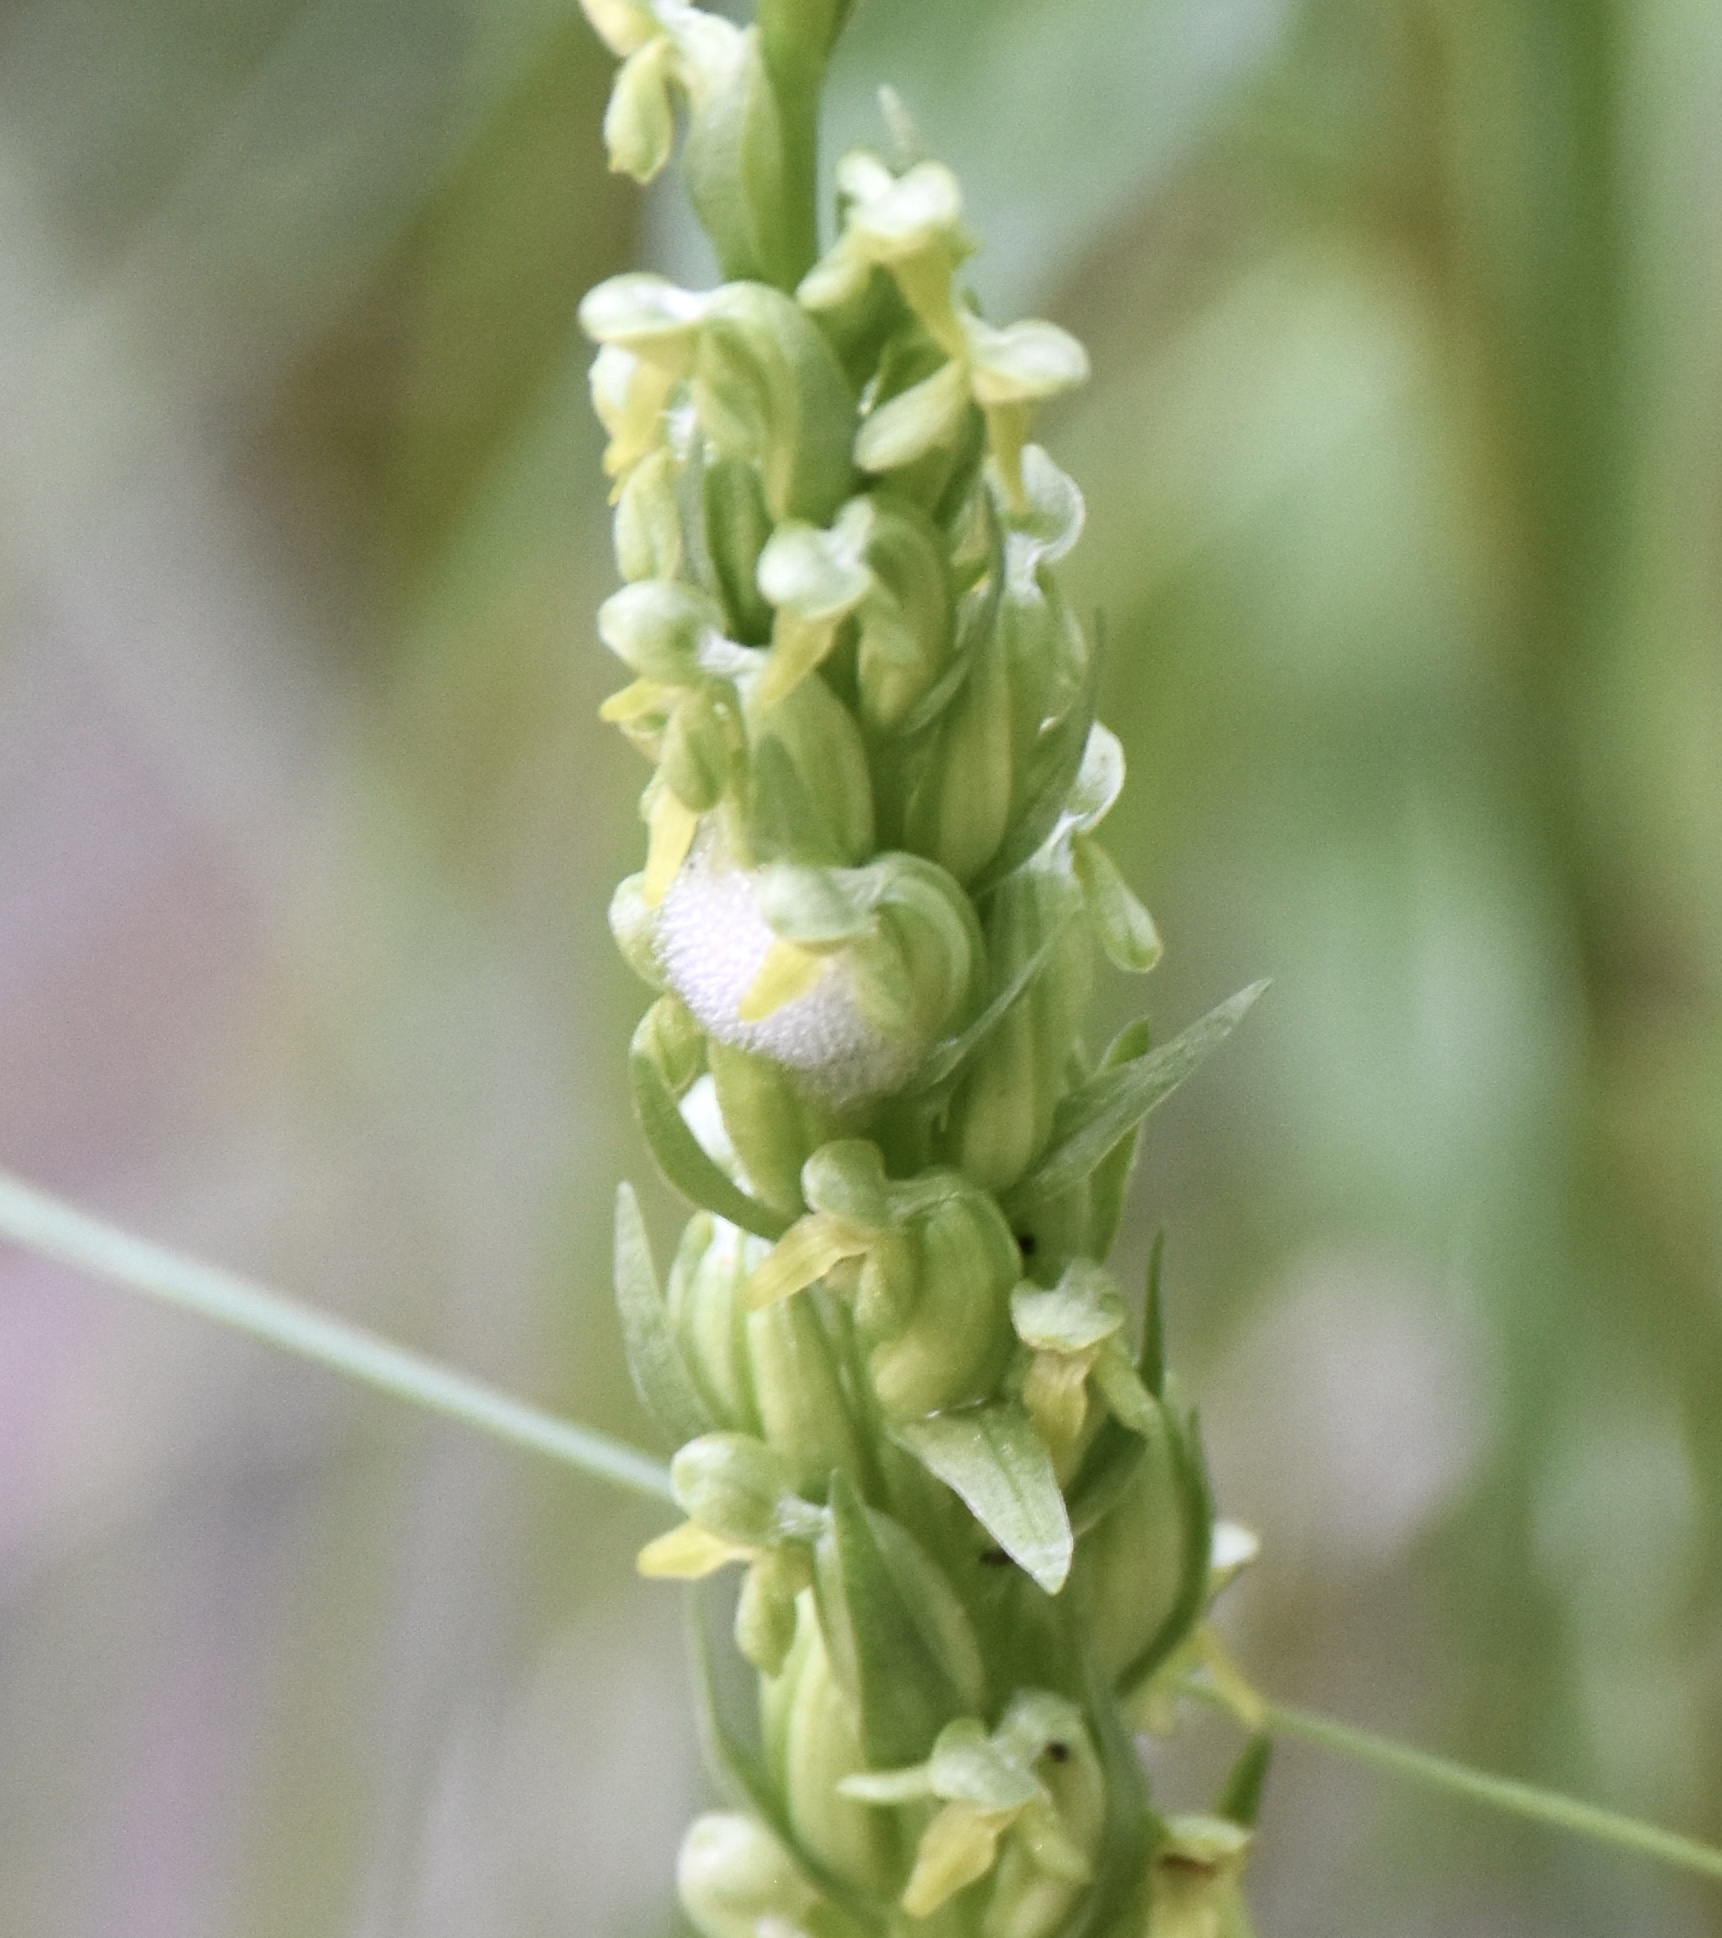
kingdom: Plantae
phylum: Tracheophyta
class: Liliopsida
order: Asparagales
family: Orchidaceae
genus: Platanthera
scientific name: Platanthera aquilonis
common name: Northern green orchid
